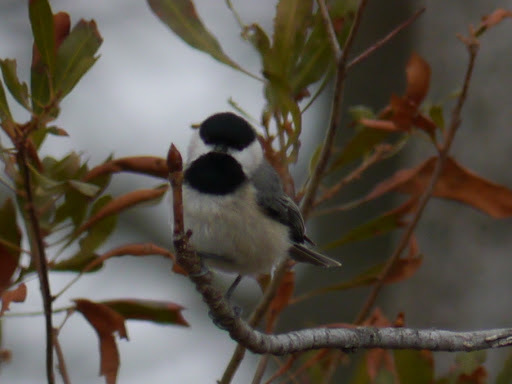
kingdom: Animalia
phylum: Chordata
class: Aves
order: Passeriformes
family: Paridae
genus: Poecile
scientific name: Poecile carolinensis
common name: Carolina chickadee
